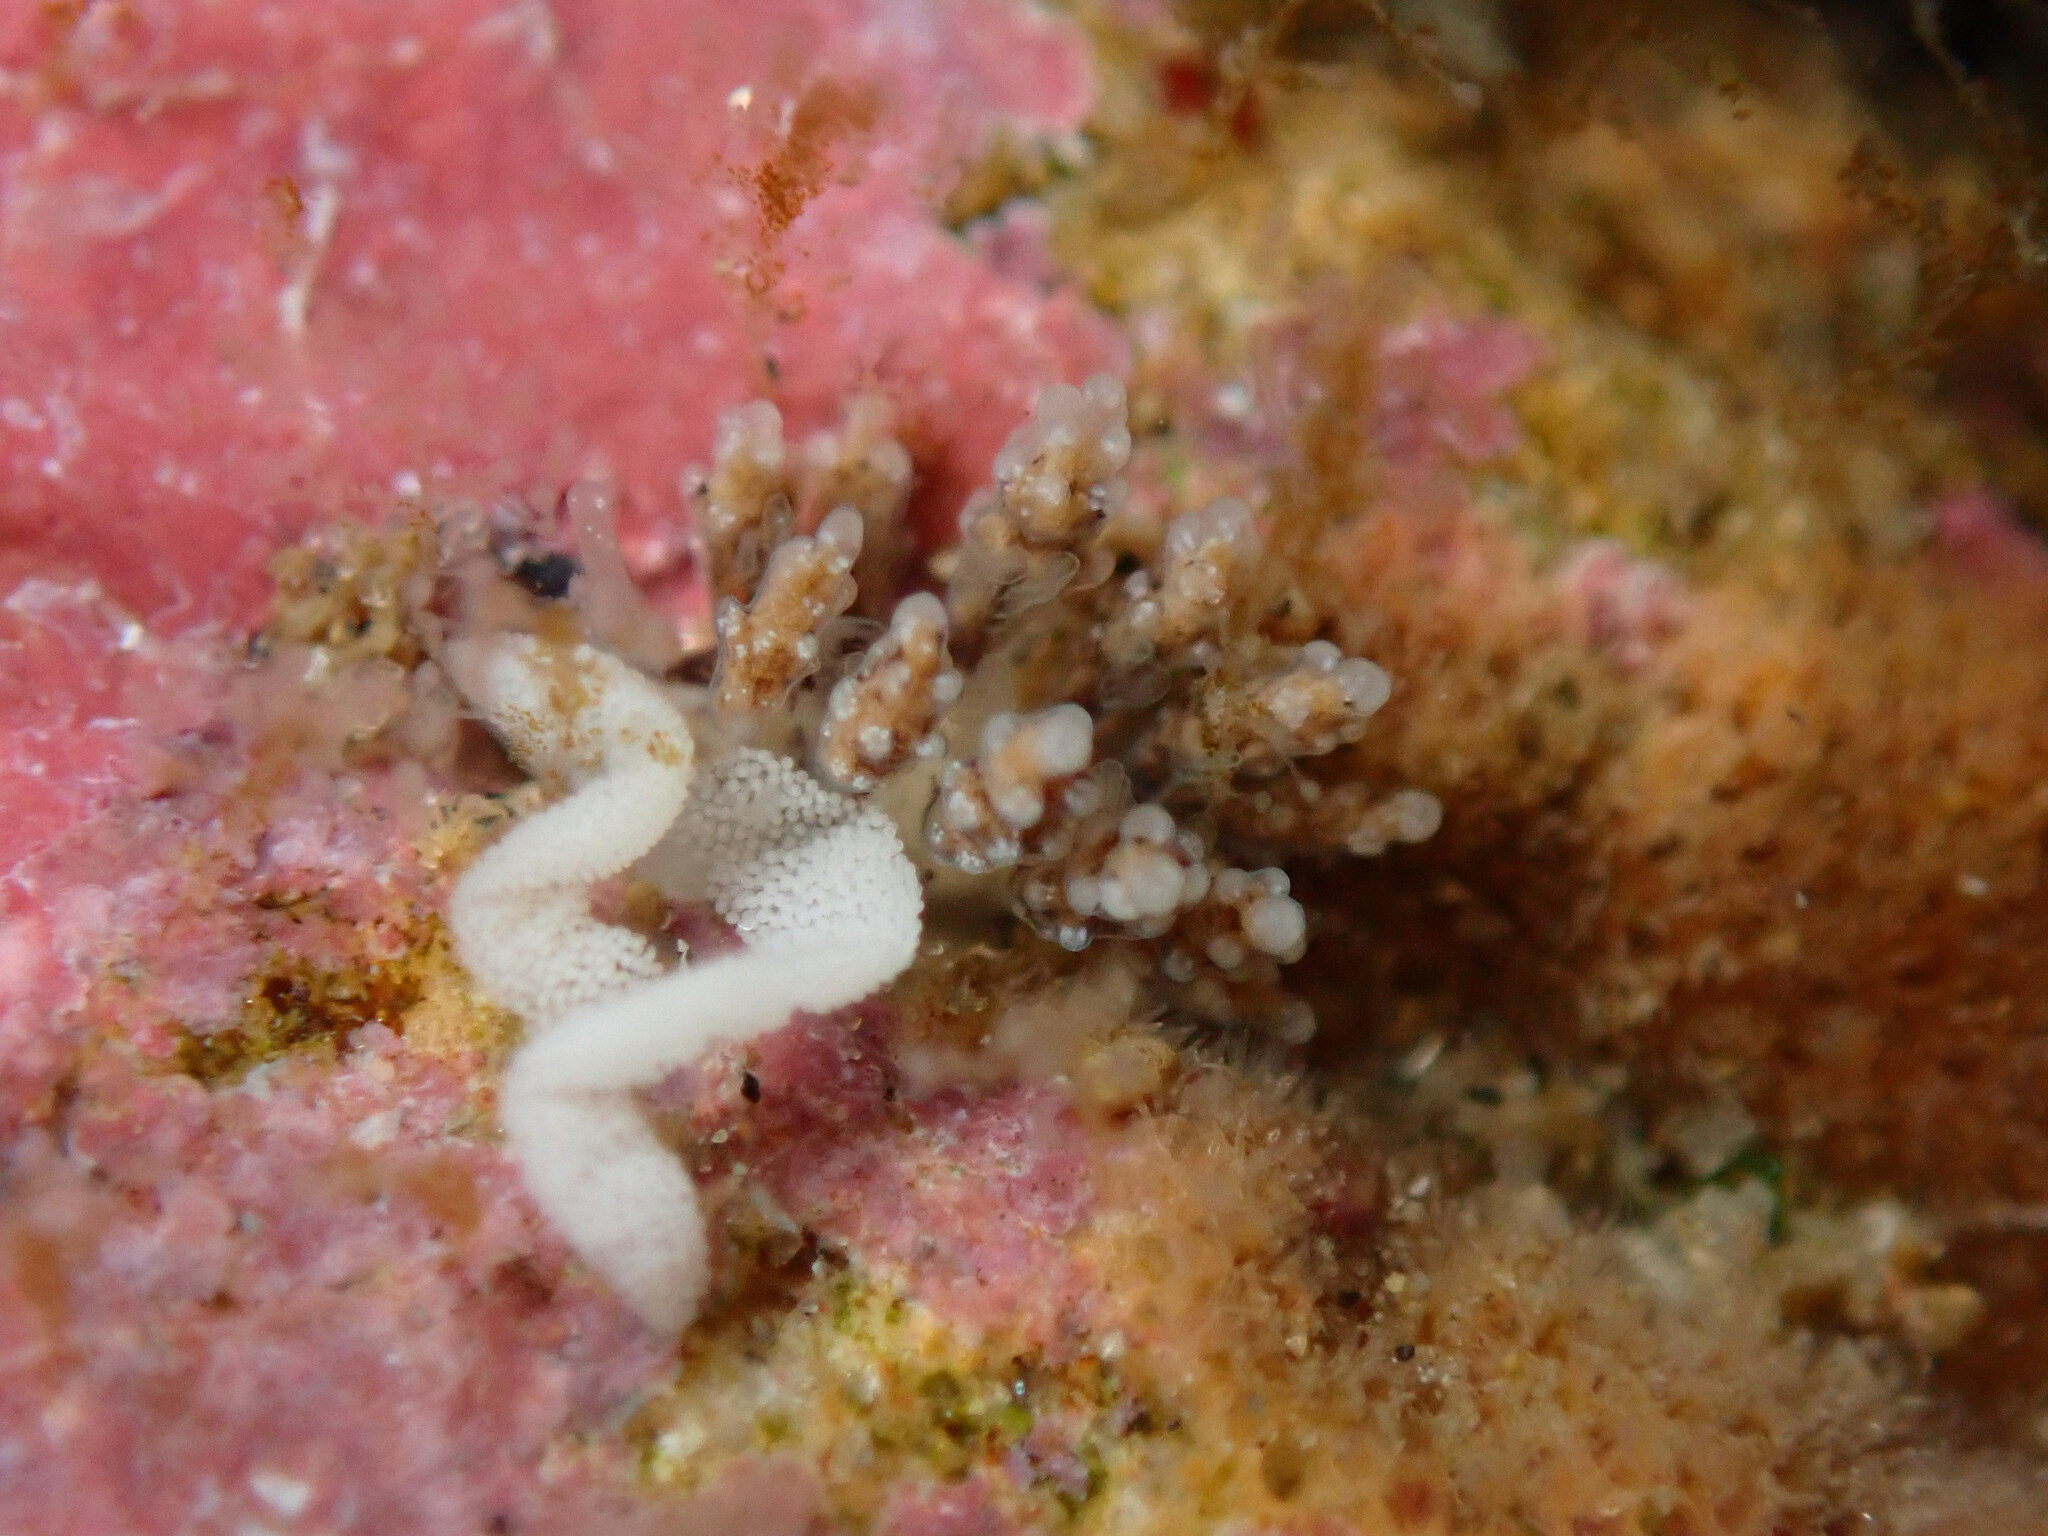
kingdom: Animalia
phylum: Mollusca
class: Gastropoda
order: Nudibranchia
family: Dotidae
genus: Doto
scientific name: Doto kya
